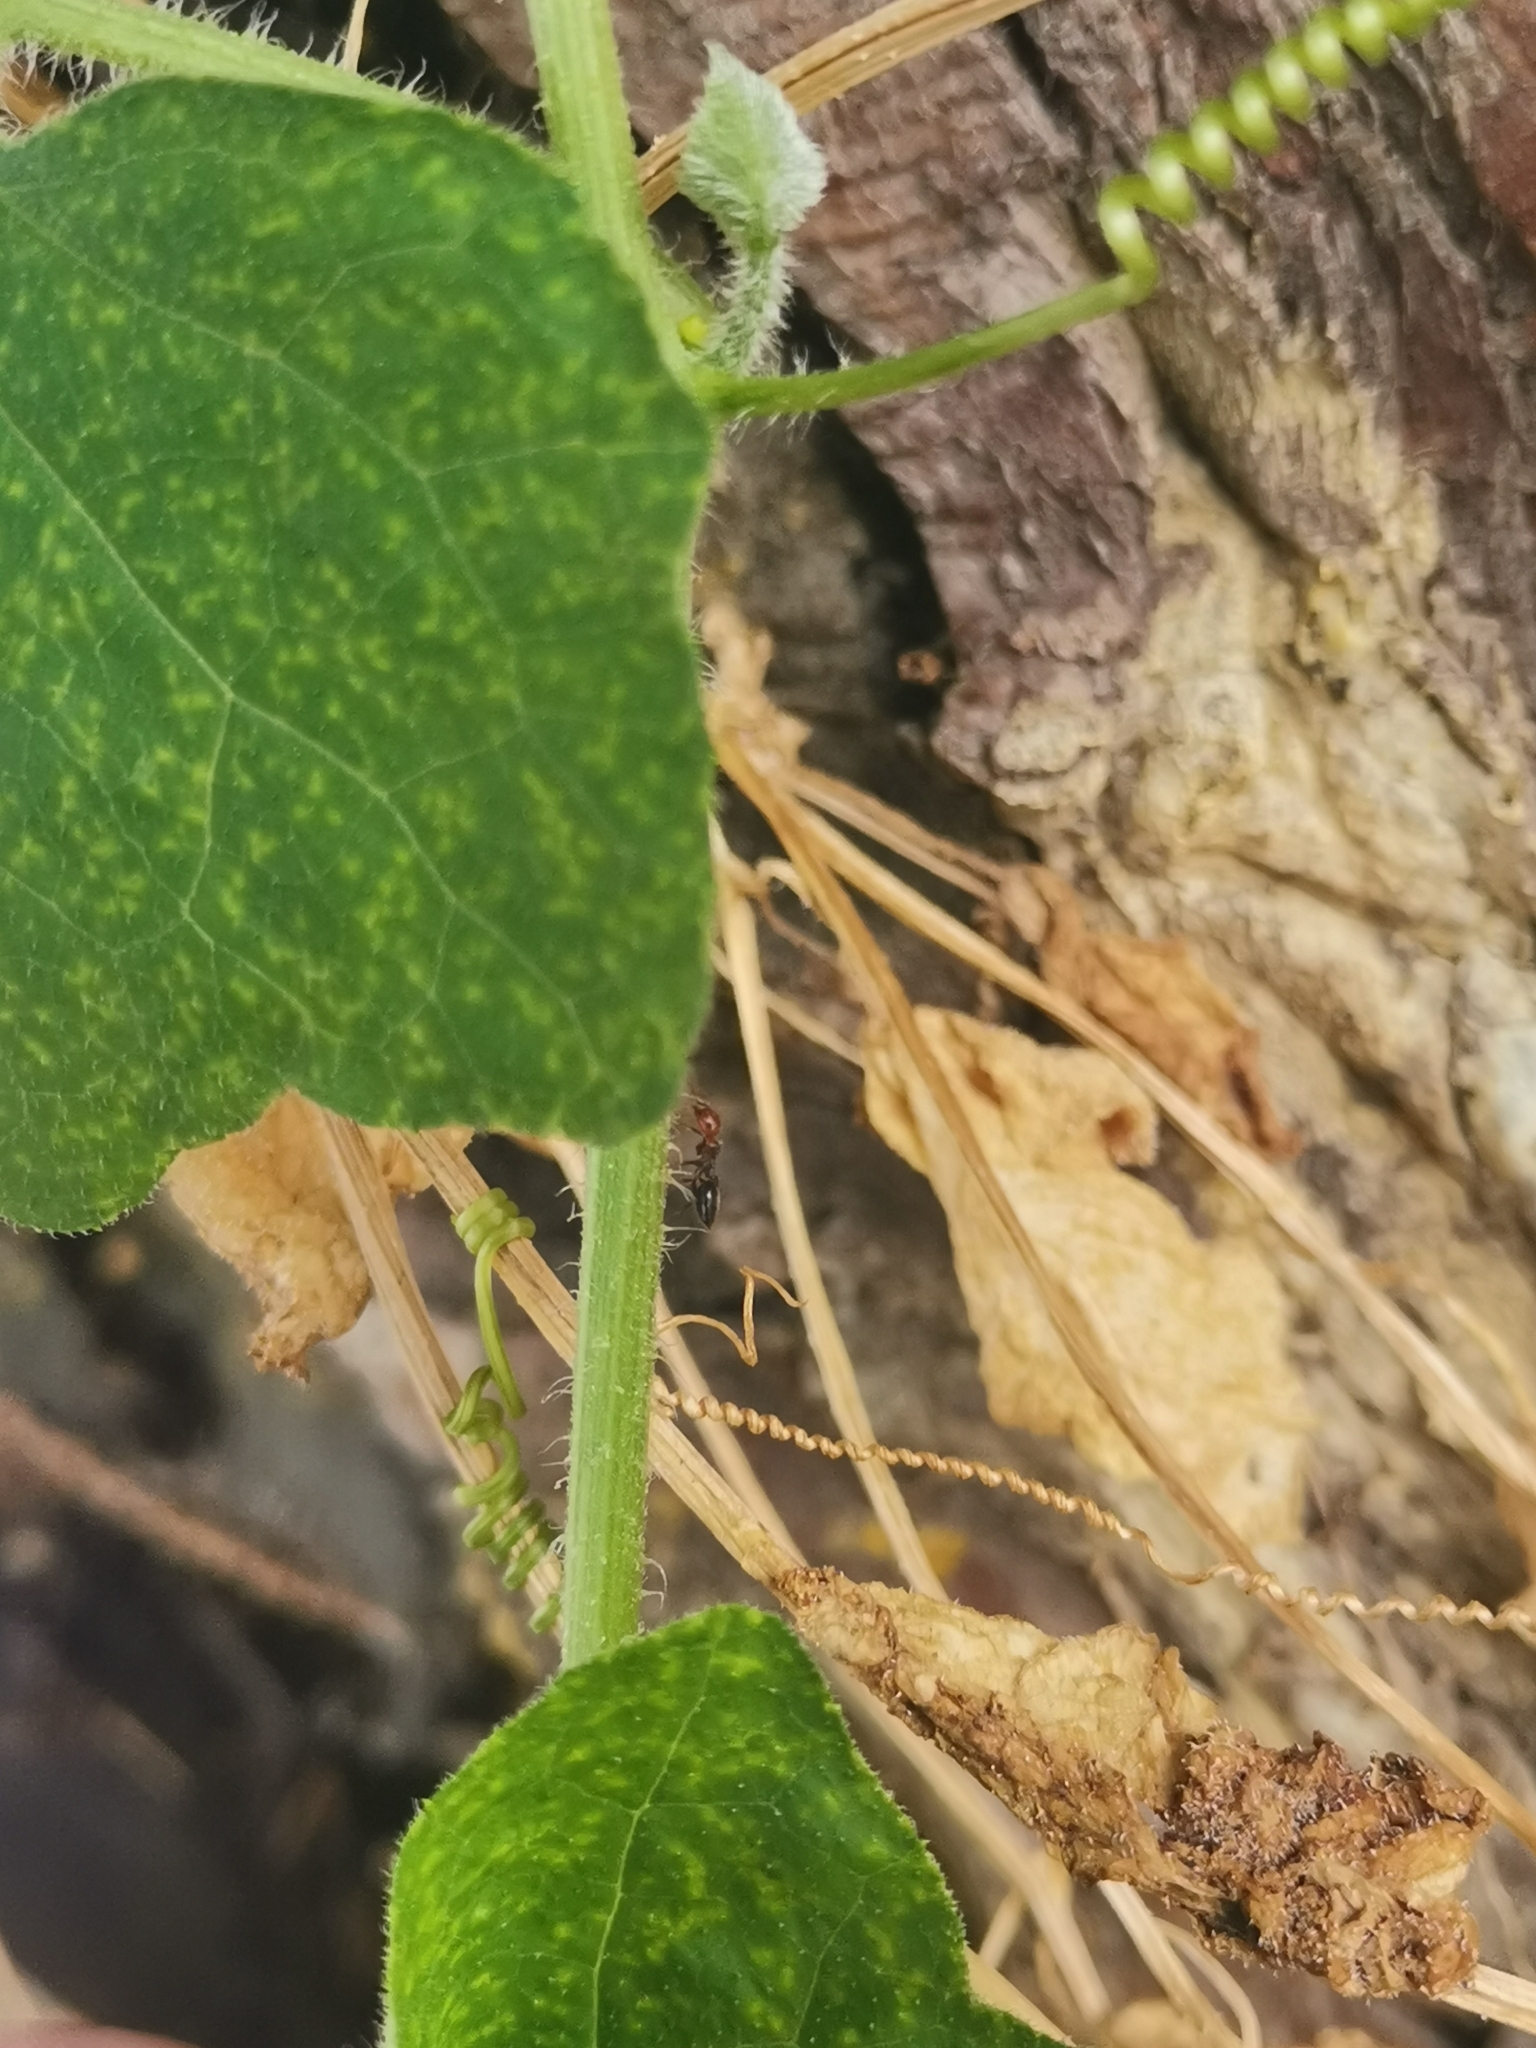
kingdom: Animalia
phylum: Arthropoda
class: Insecta
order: Hymenoptera
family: Formicidae
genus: Crematogaster
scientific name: Crematogaster scutellaris
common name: Fourmi du liège
